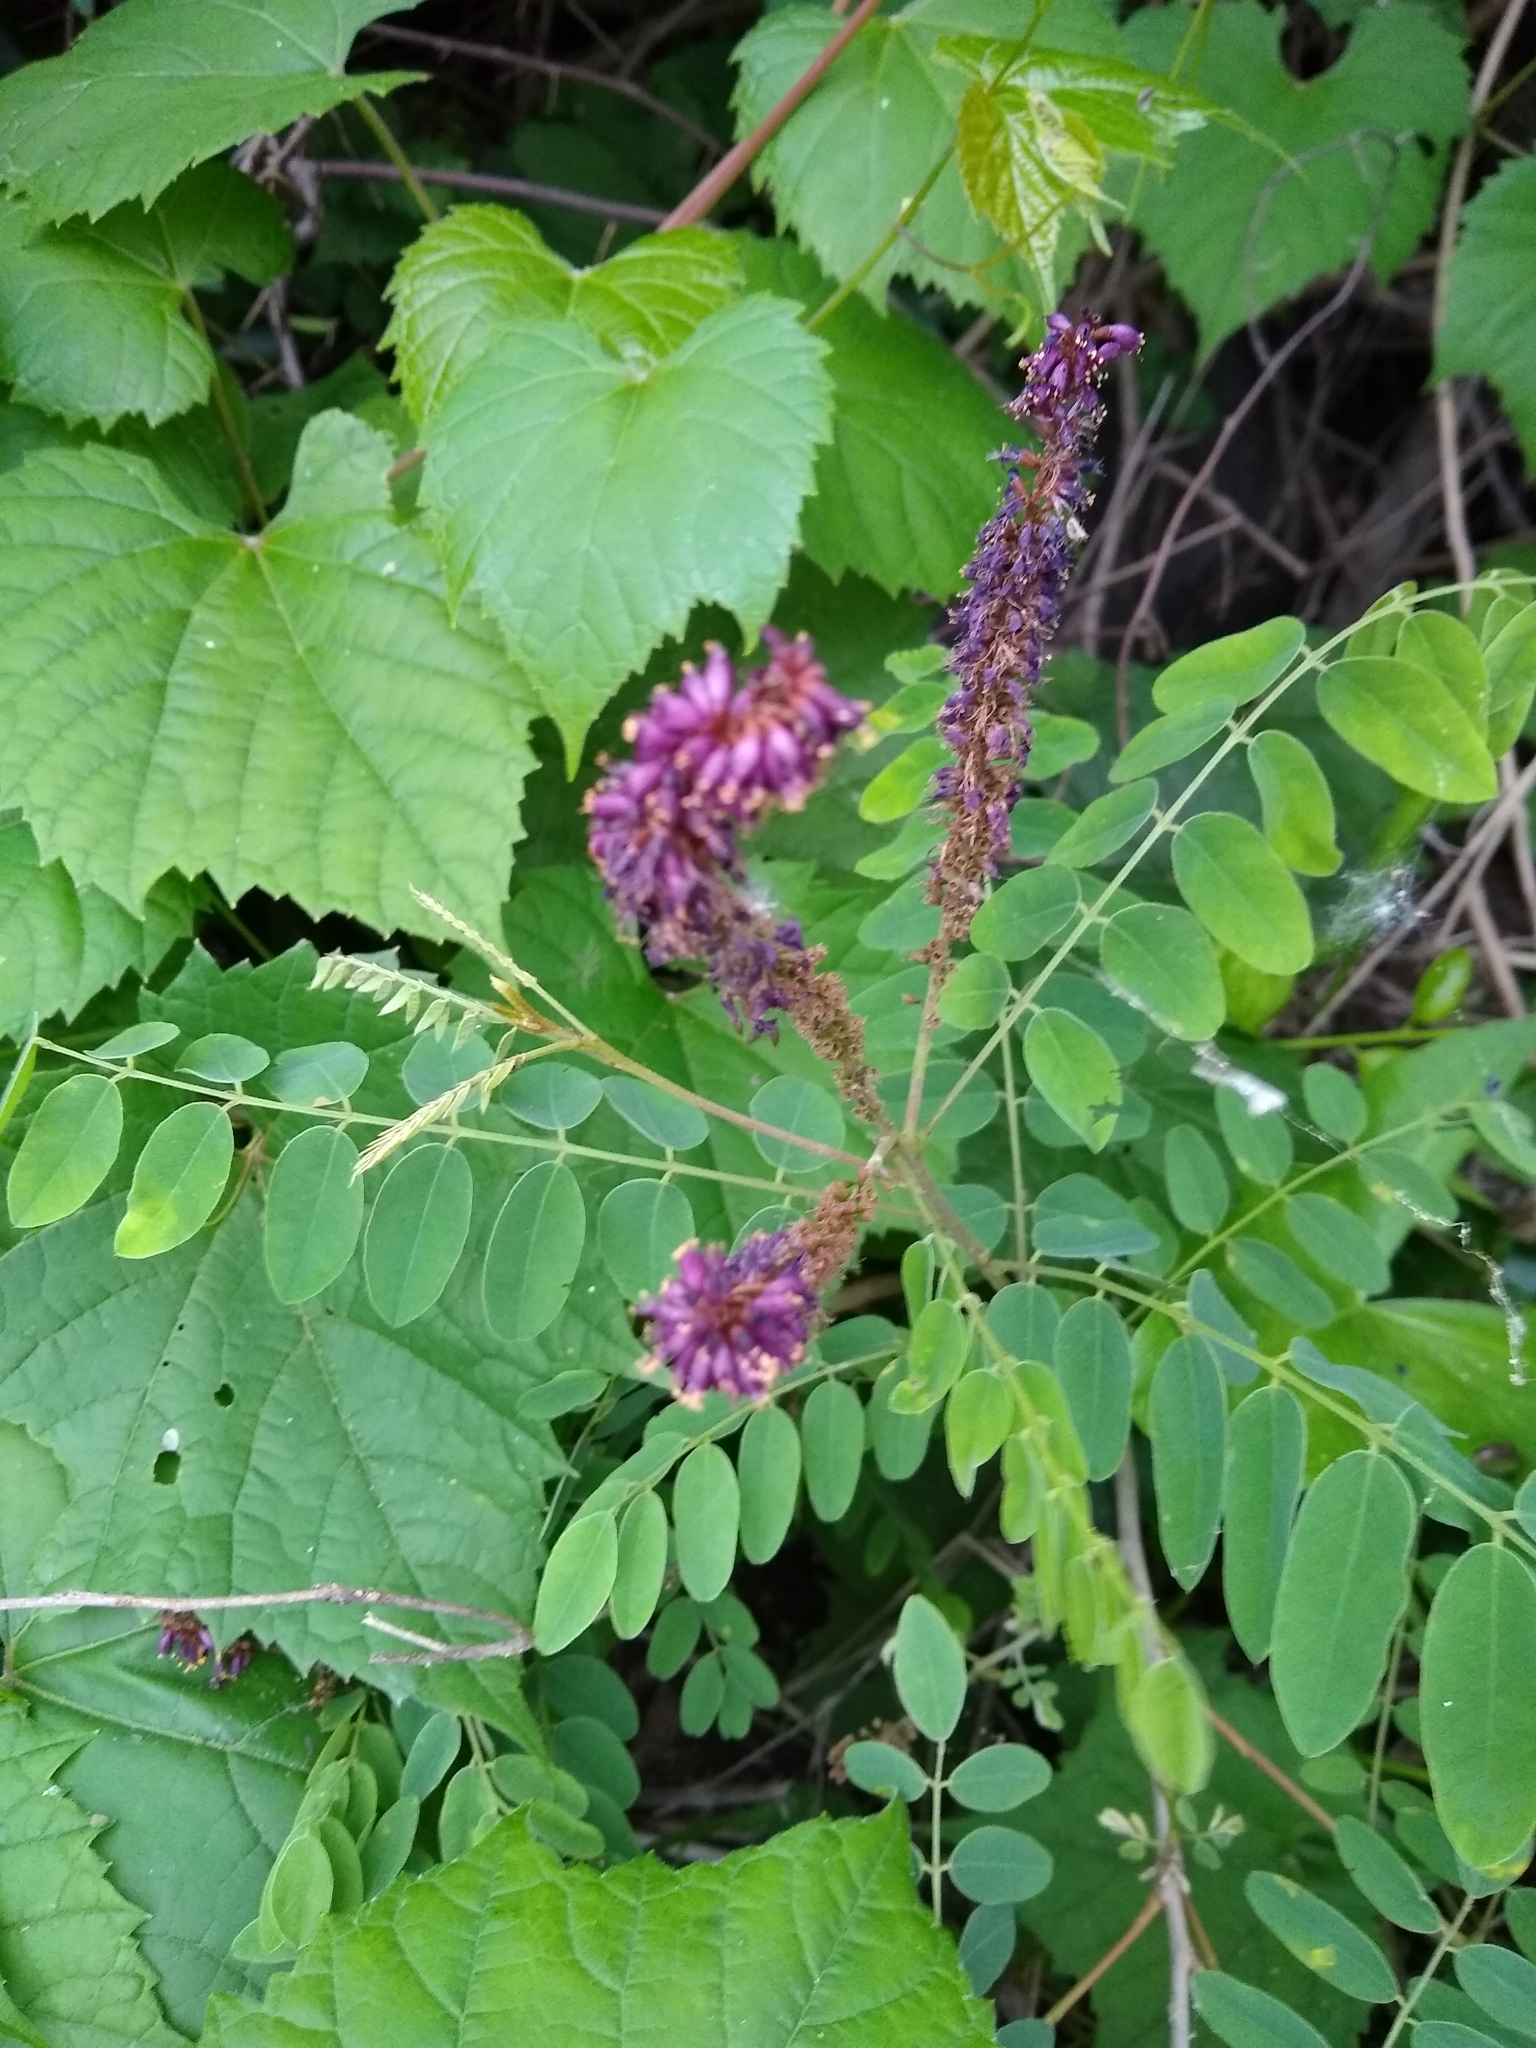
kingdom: Plantae
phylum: Tracheophyta
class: Magnoliopsida
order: Fabales
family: Fabaceae
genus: Amorpha
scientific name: Amorpha fruticosa
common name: False indigo
